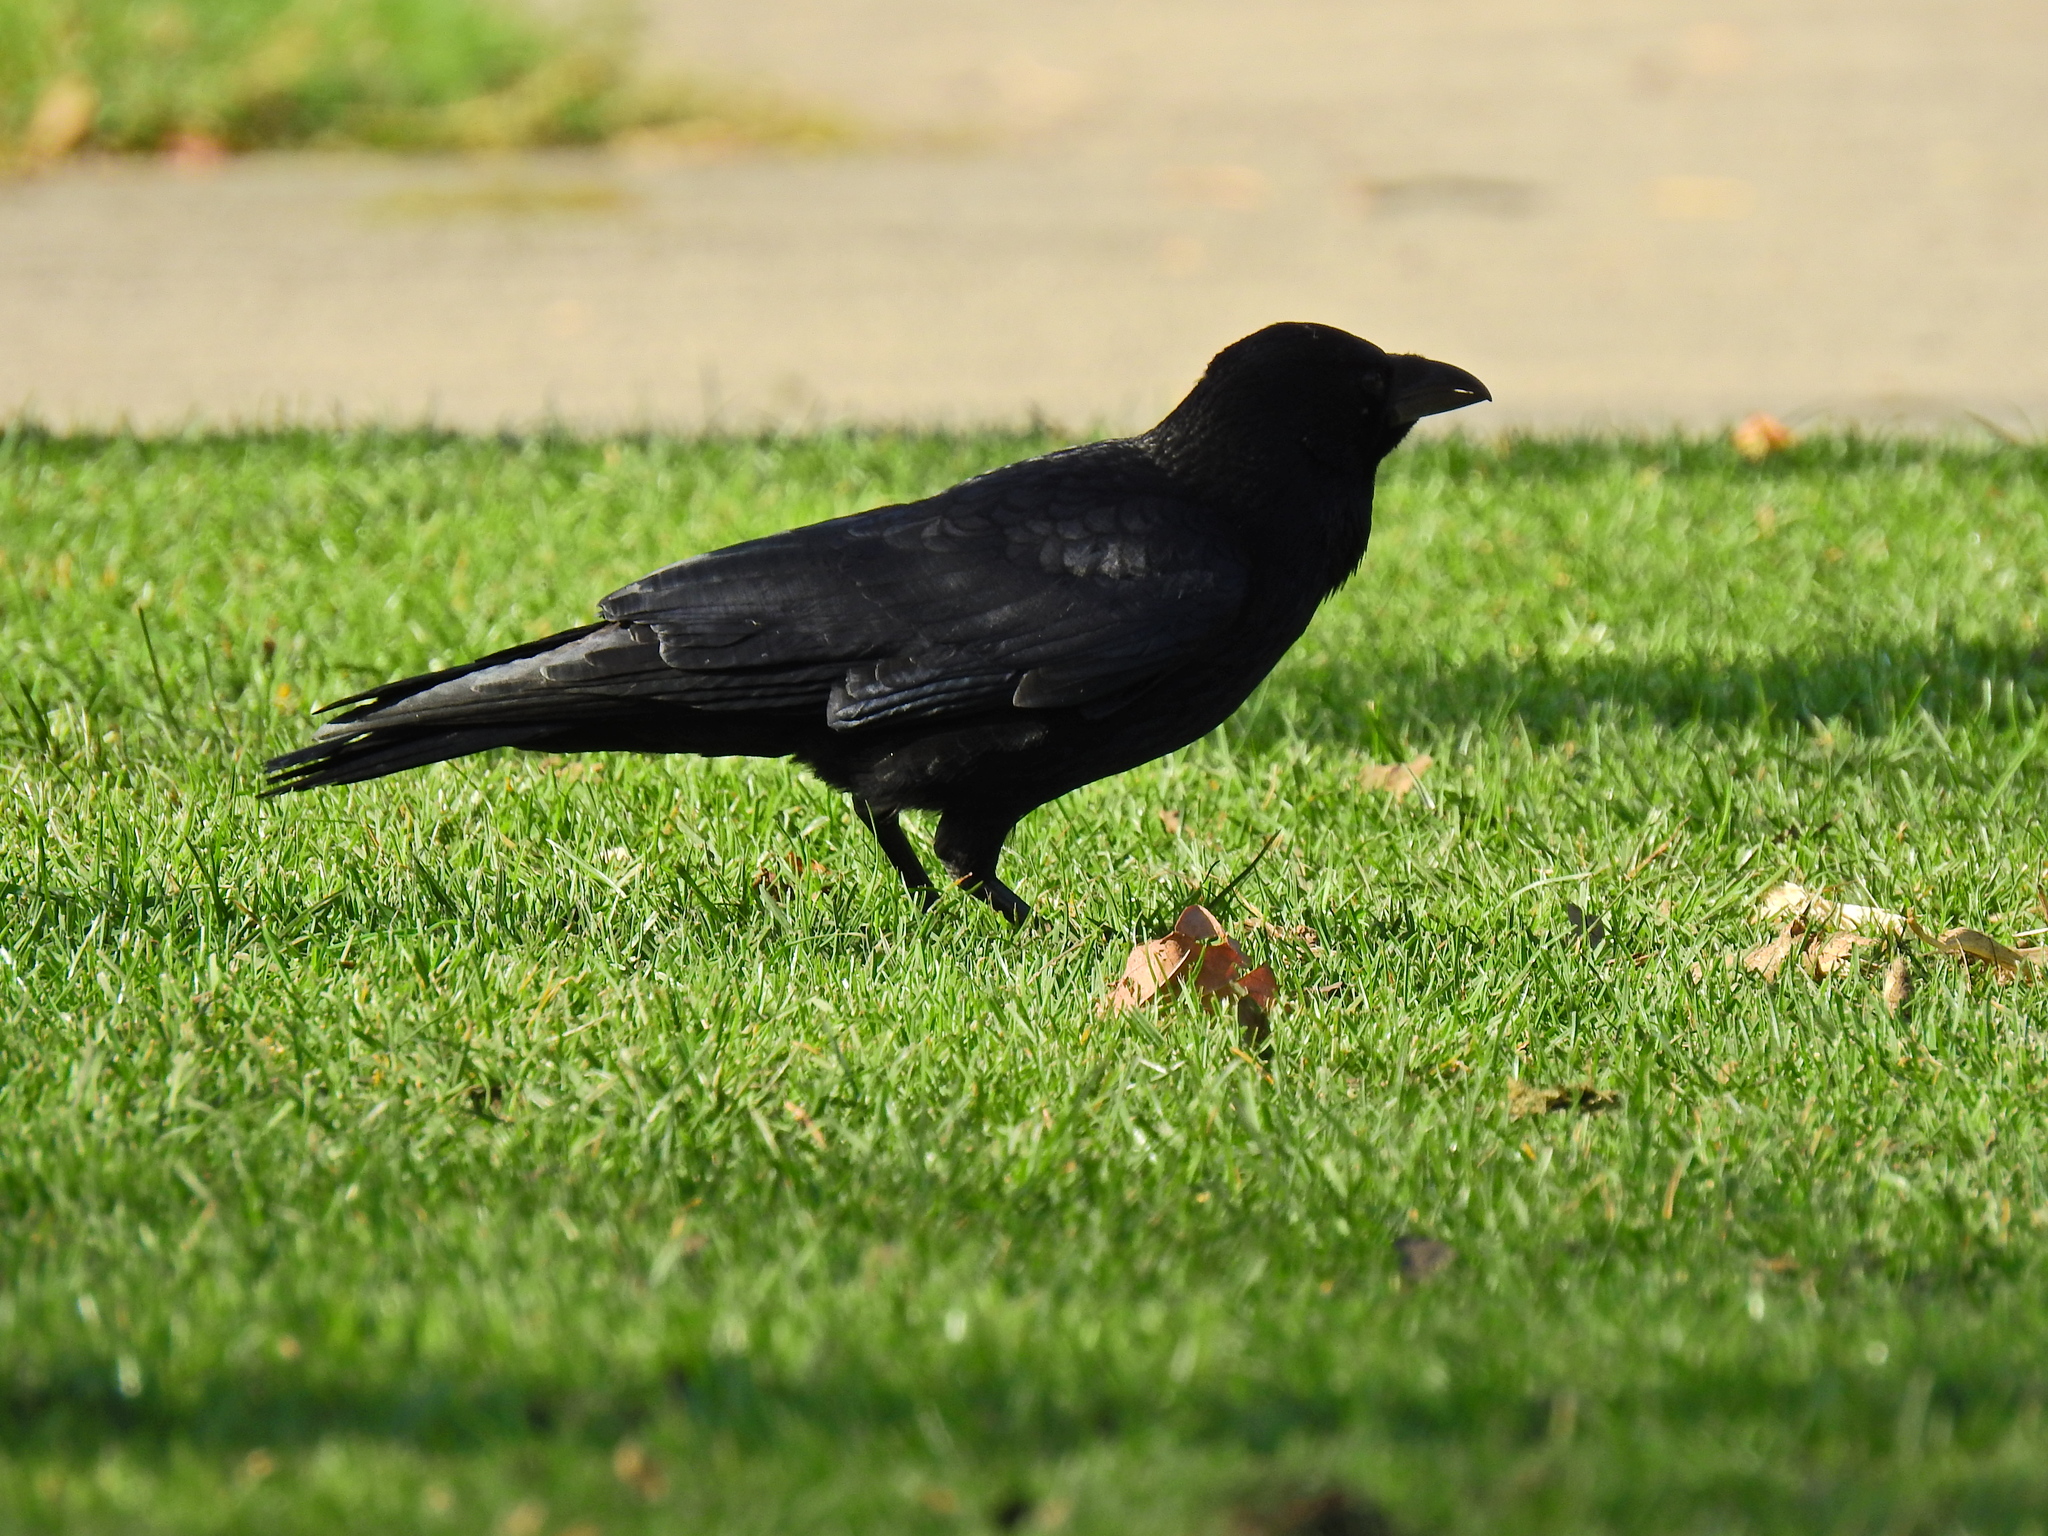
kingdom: Animalia
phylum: Chordata
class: Aves
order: Passeriformes
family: Corvidae
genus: Corvus
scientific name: Corvus corone
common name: Carrion crow
